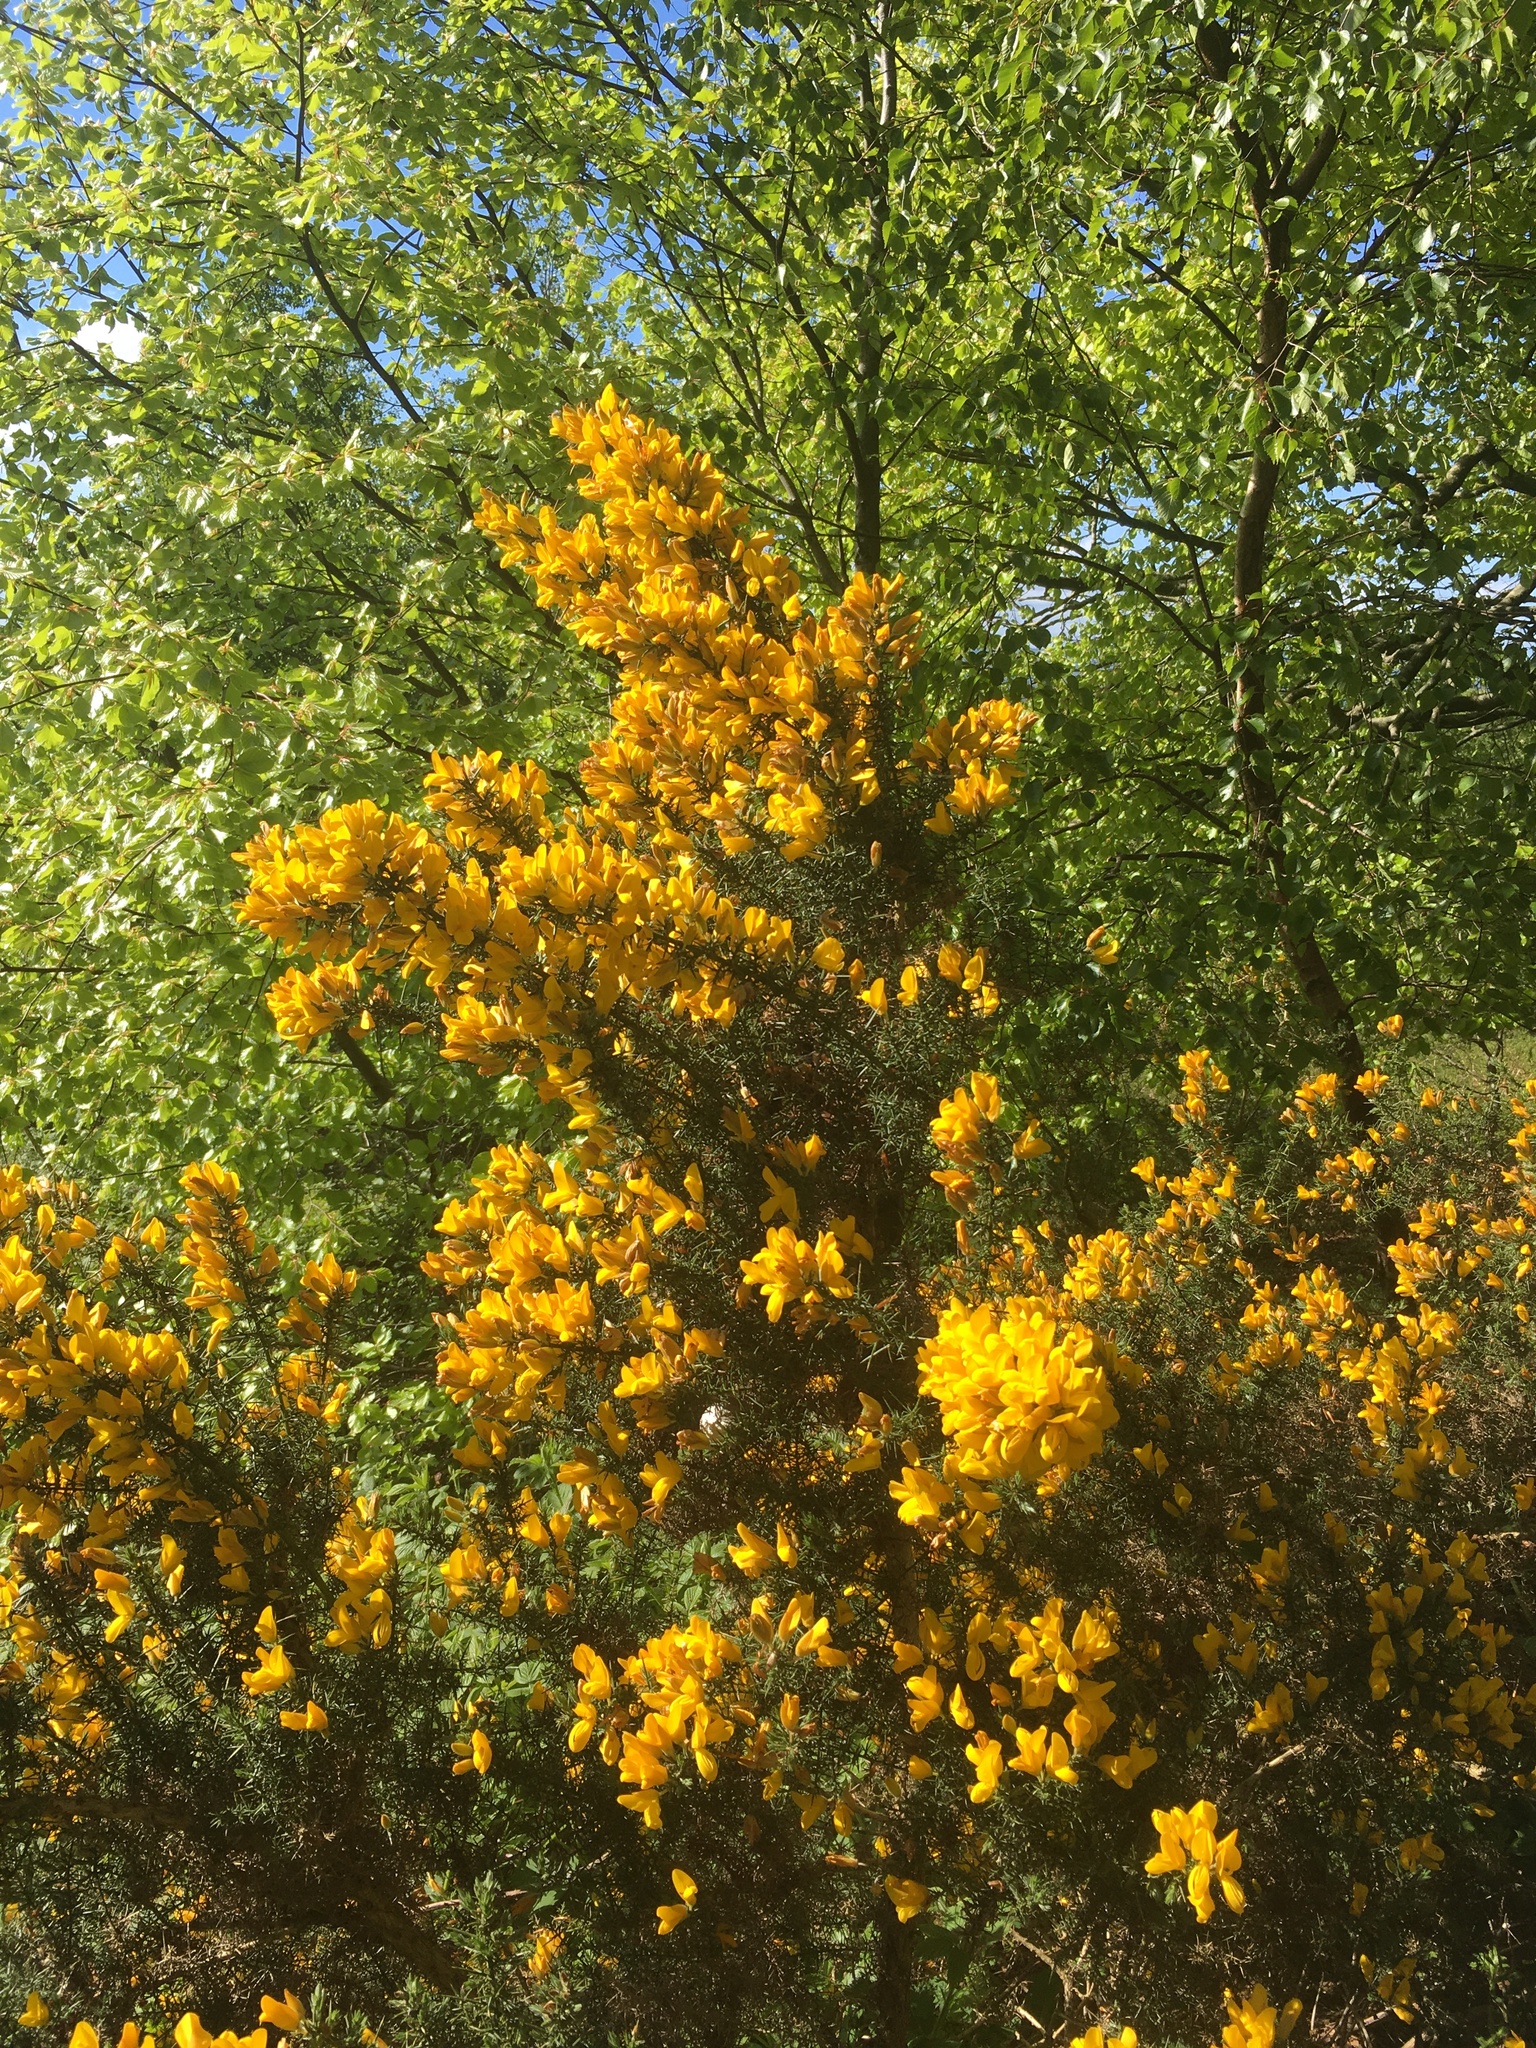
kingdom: Plantae
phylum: Tracheophyta
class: Magnoliopsida
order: Fabales
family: Fabaceae
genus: Ulex
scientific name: Ulex europaeus
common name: Common gorse
